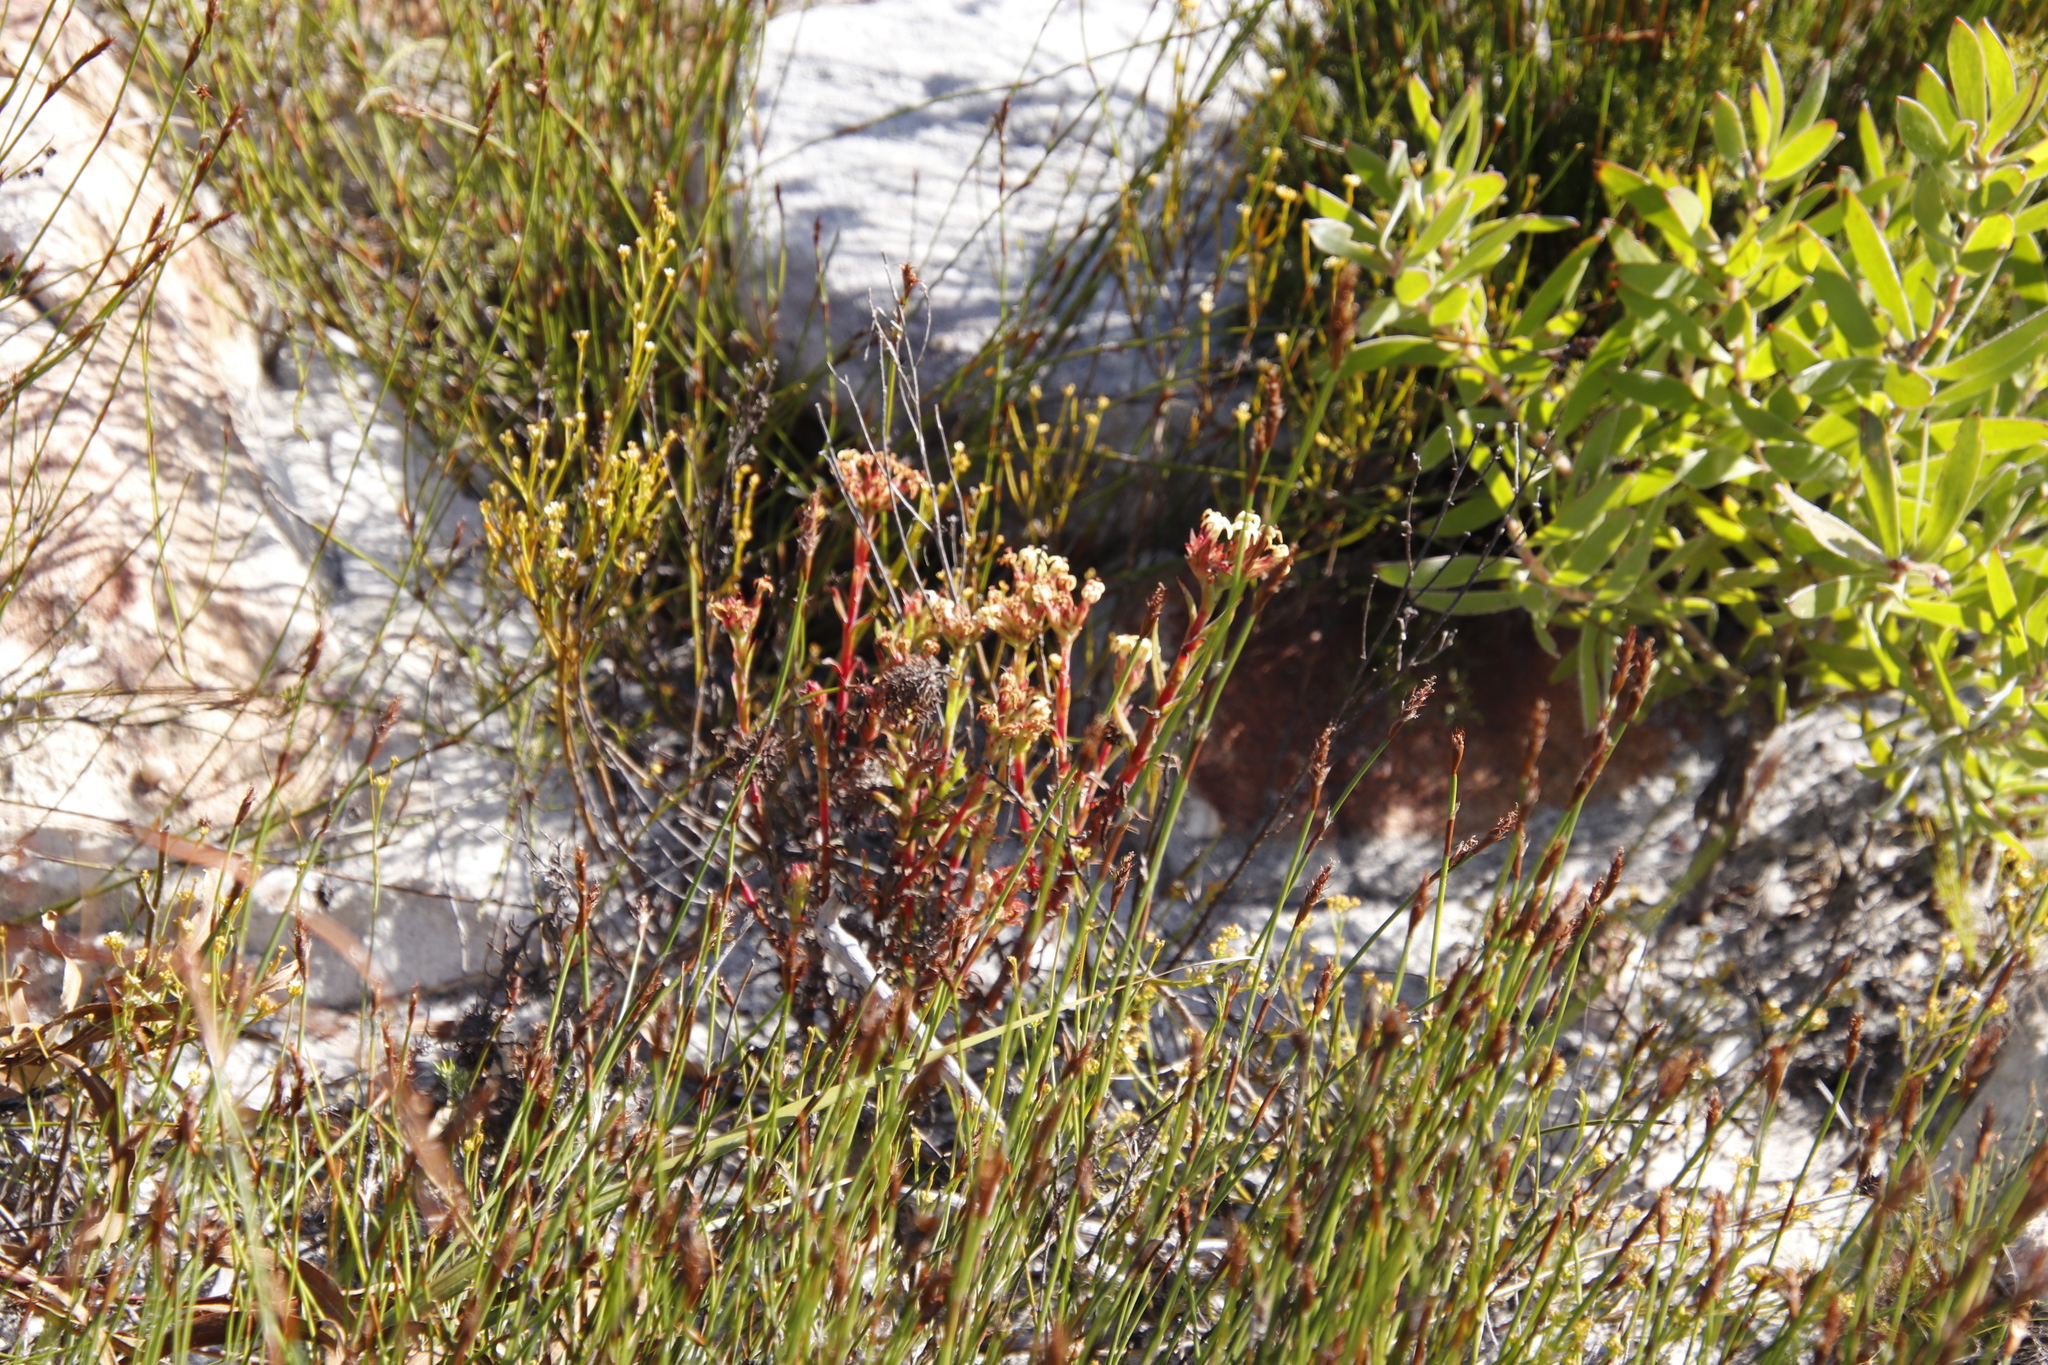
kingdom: Plantae
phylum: Tracheophyta
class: Magnoliopsida
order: Saxifragales
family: Crassulaceae
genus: Crassula
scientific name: Crassula fascicularis
